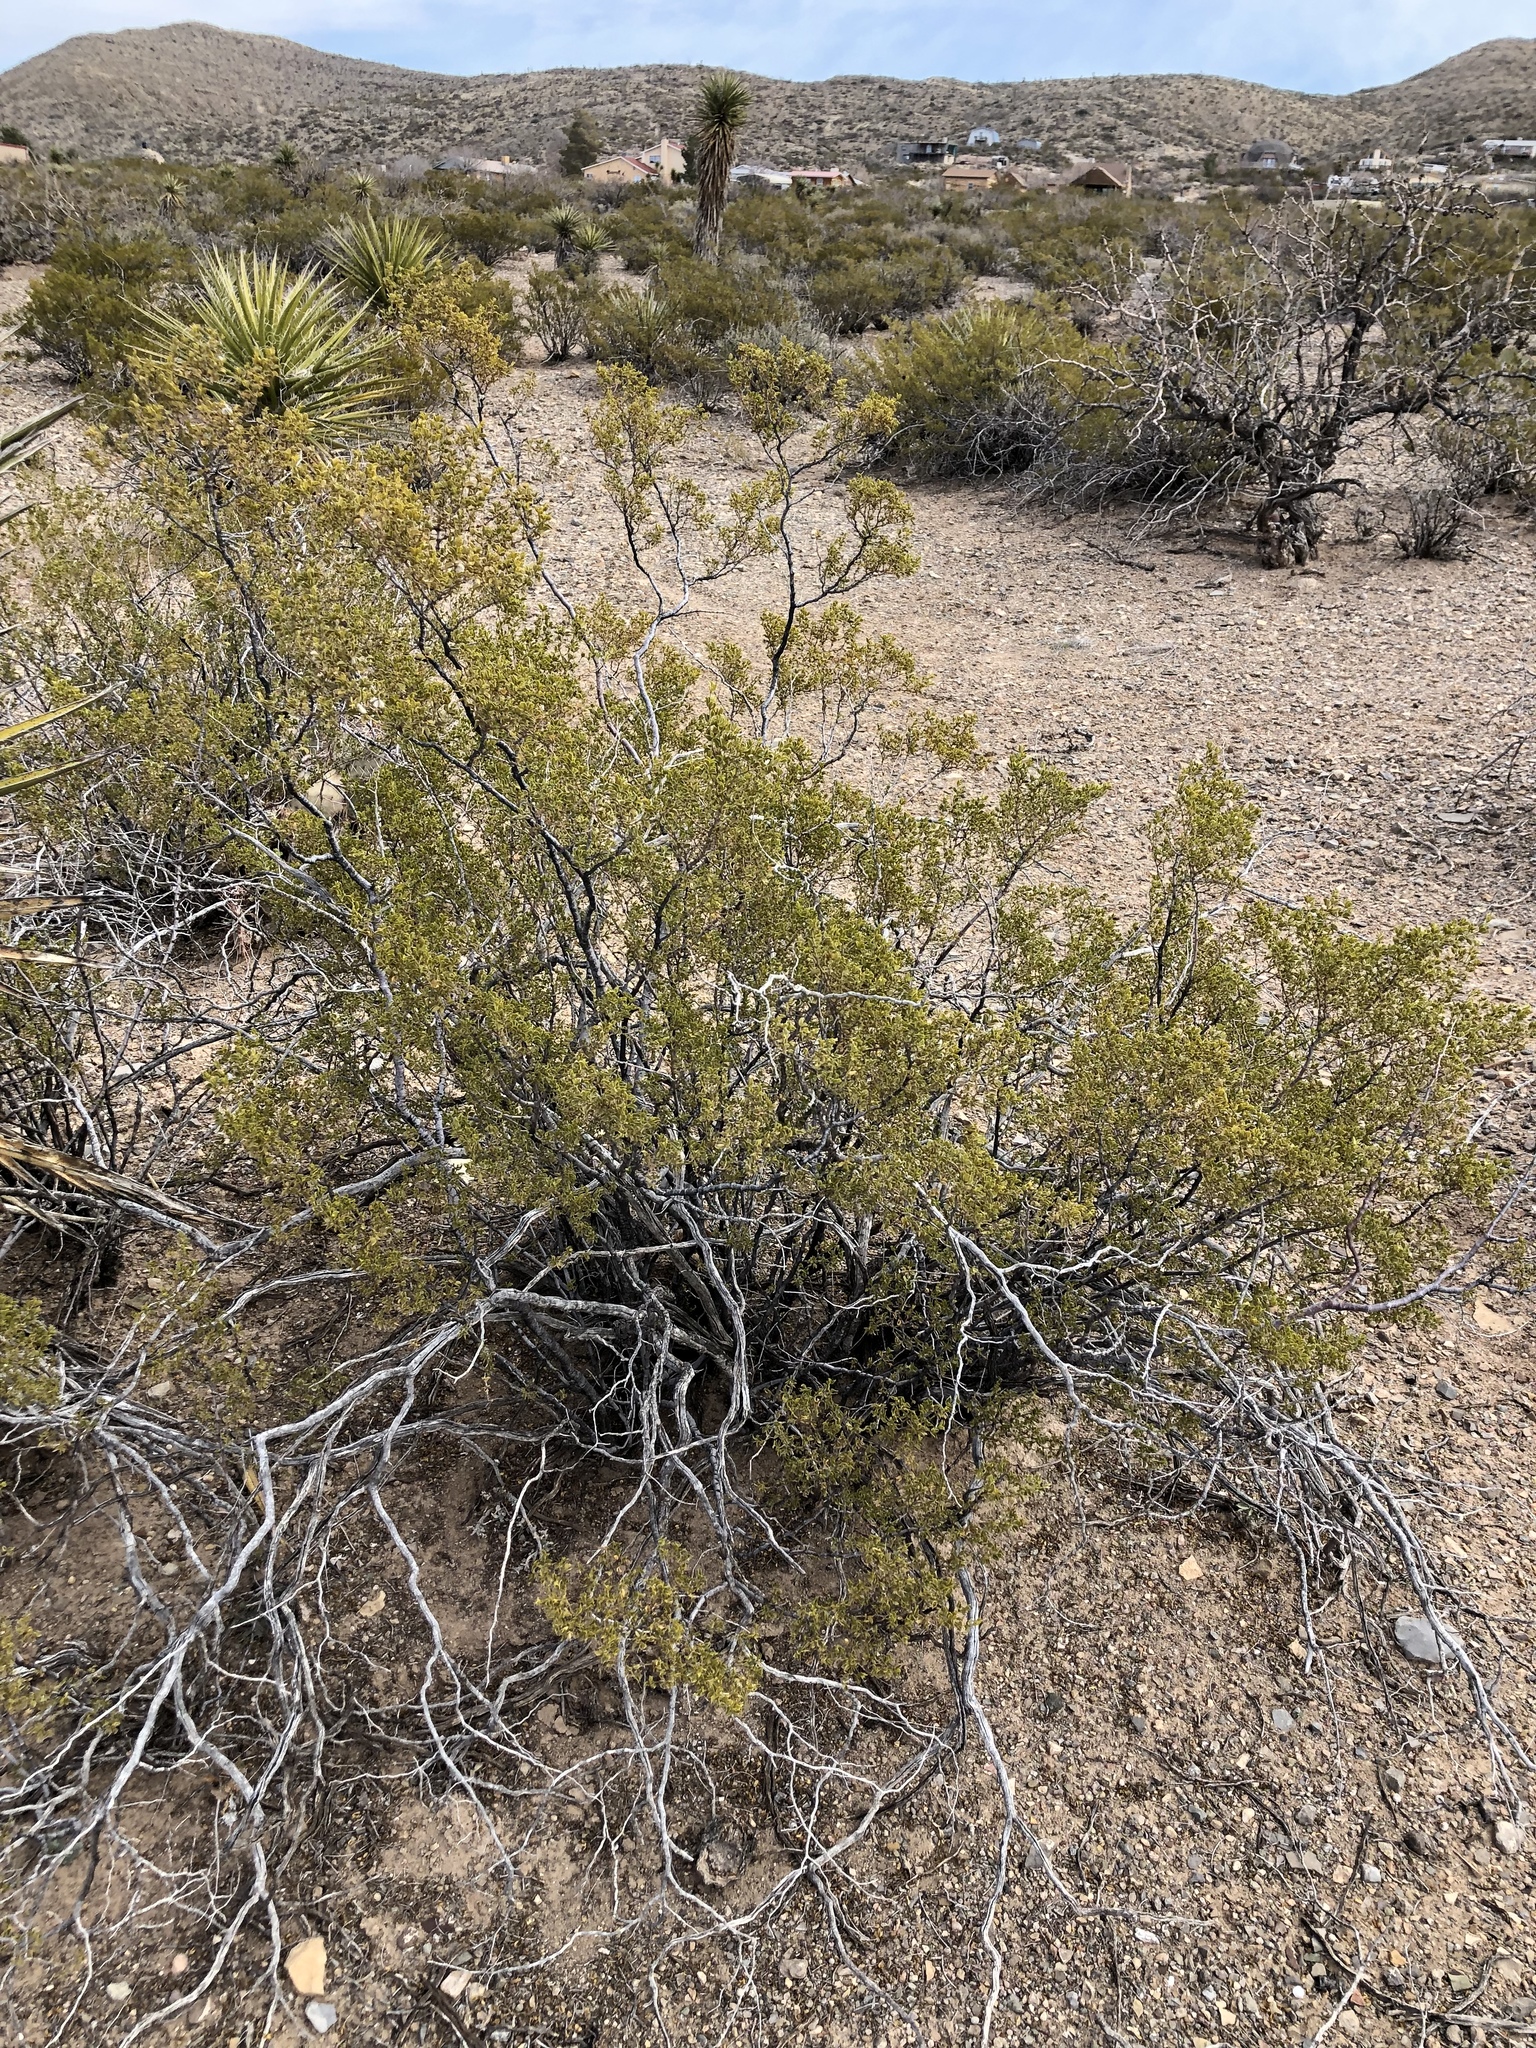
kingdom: Plantae
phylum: Tracheophyta
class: Magnoliopsida
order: Zygophyllales
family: Zygophyllaceae
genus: Larrea
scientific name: Larrea tridentata
